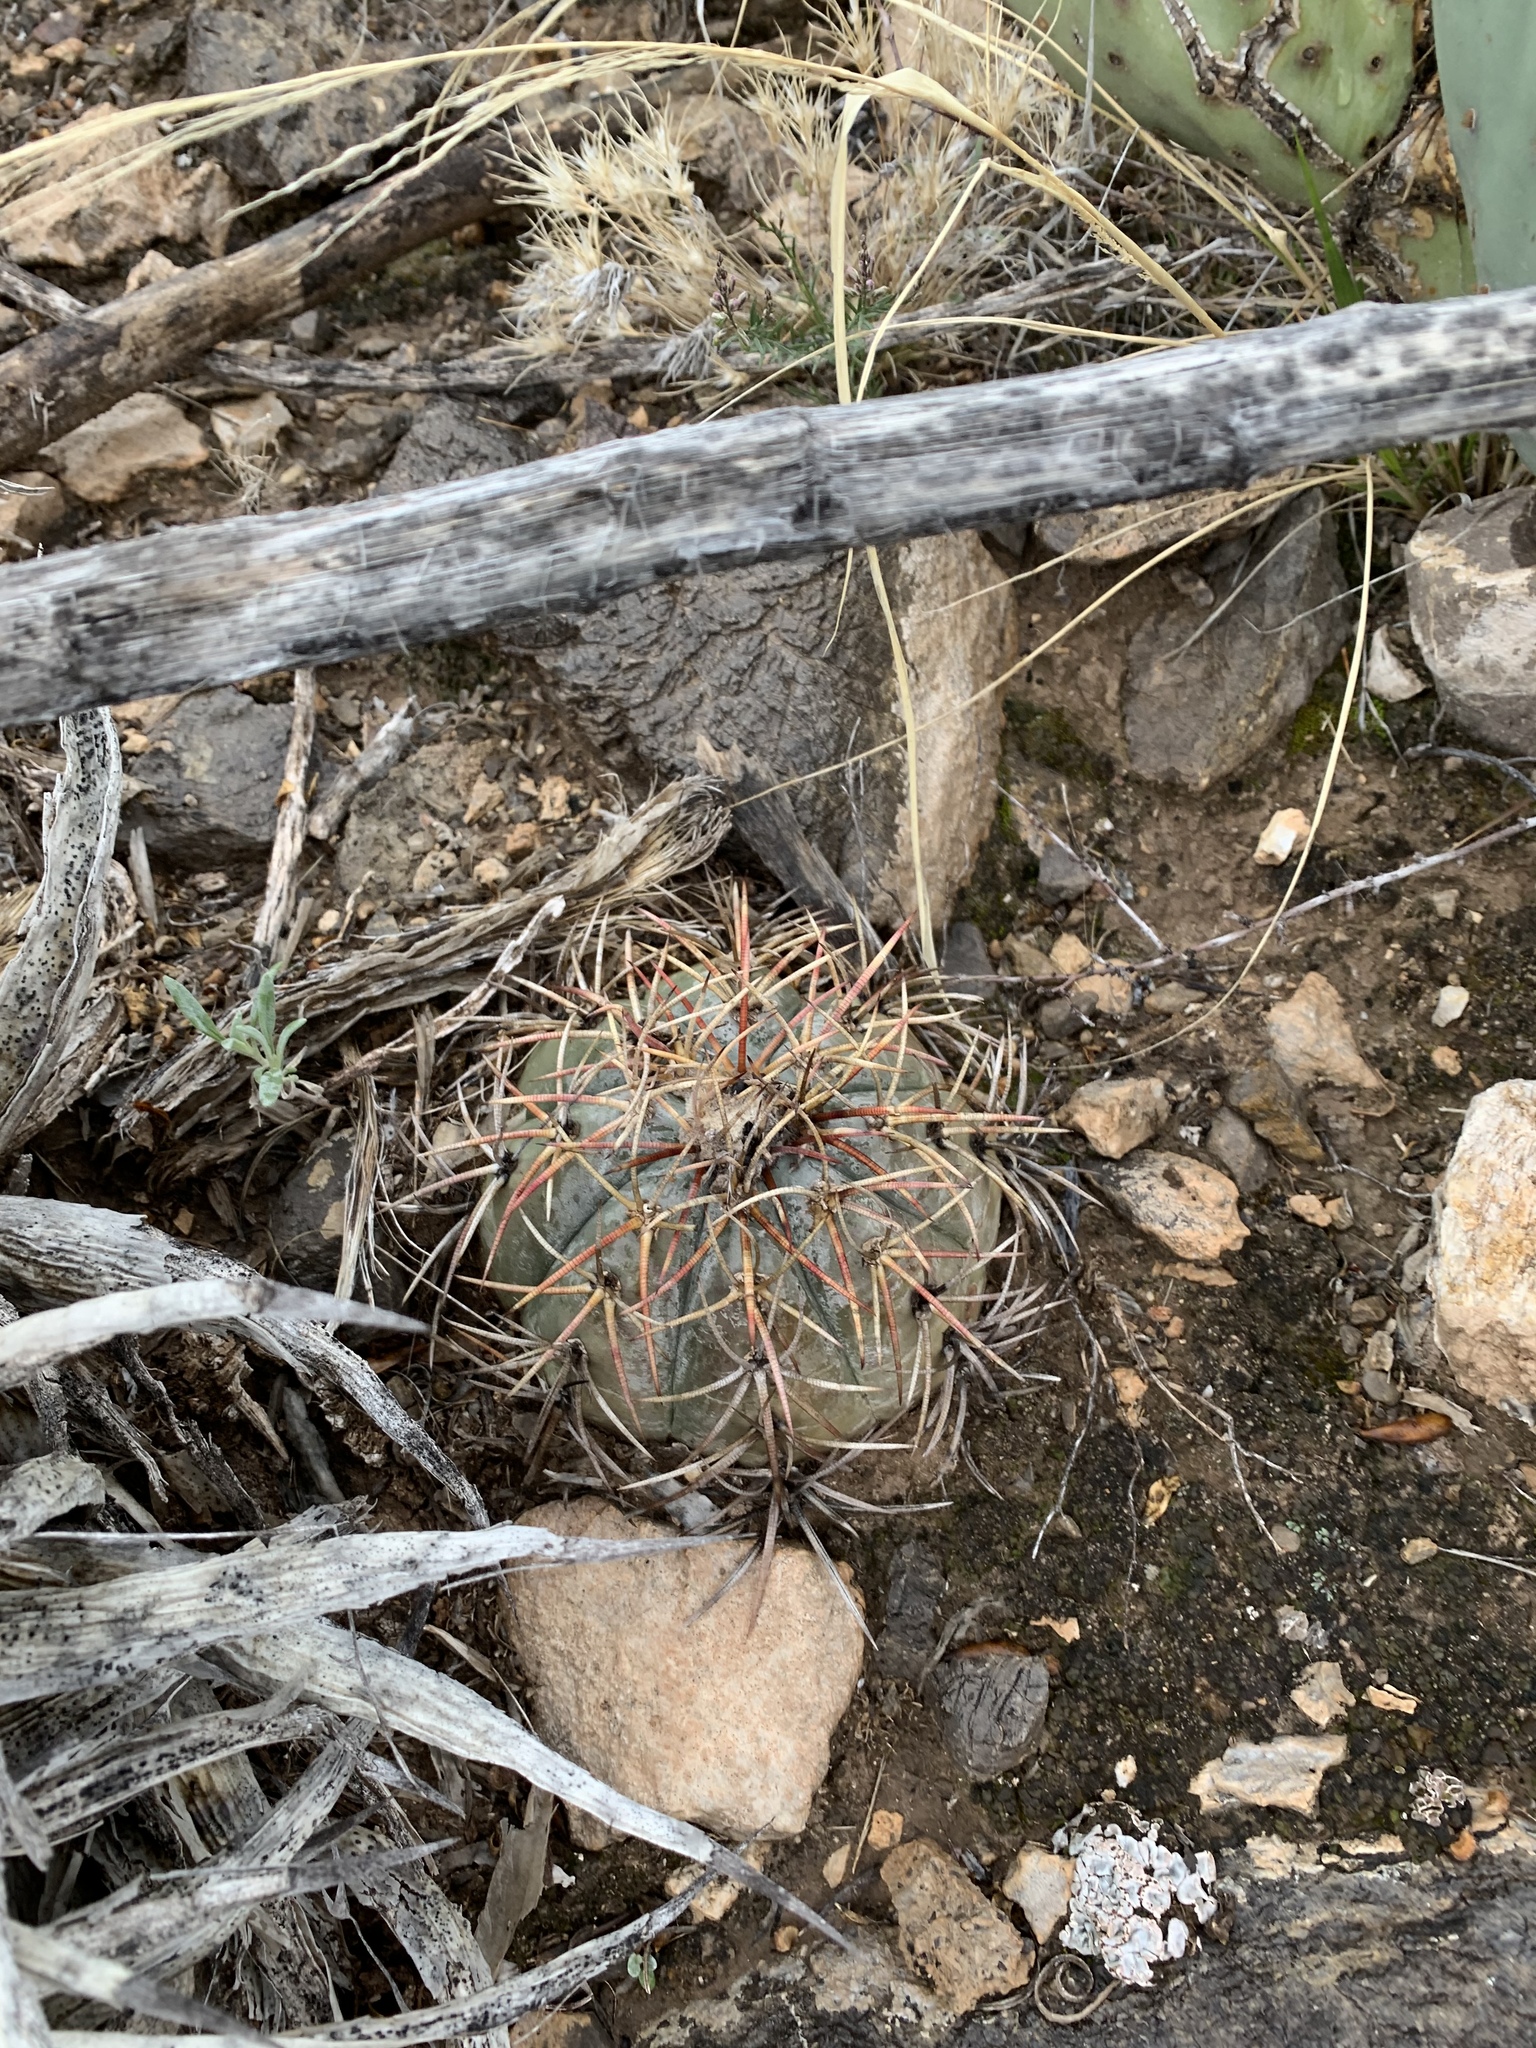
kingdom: Plantae
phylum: Tracheophyta
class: Magnoliopsida
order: Caryophyllales
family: Cactaceae
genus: Echinocactus
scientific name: Echinocactus horizonthalonius
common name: Devilshead
